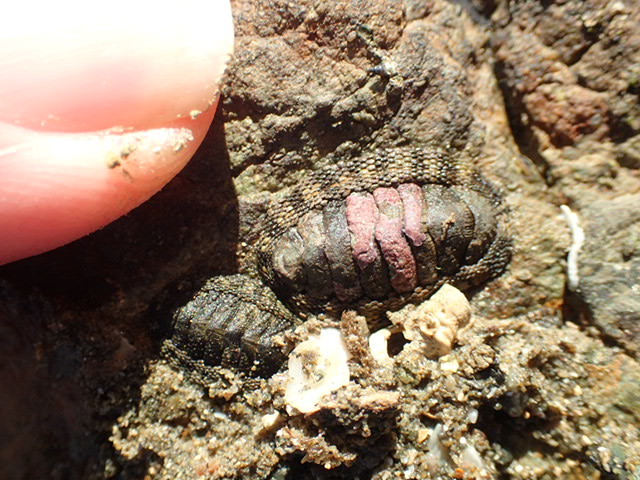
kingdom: Animalia
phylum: Mollusca
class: Polyplacophora
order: Chitonida
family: Chitonidae
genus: Sypharochiton
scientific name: Sypharochiton pelliserpentis
